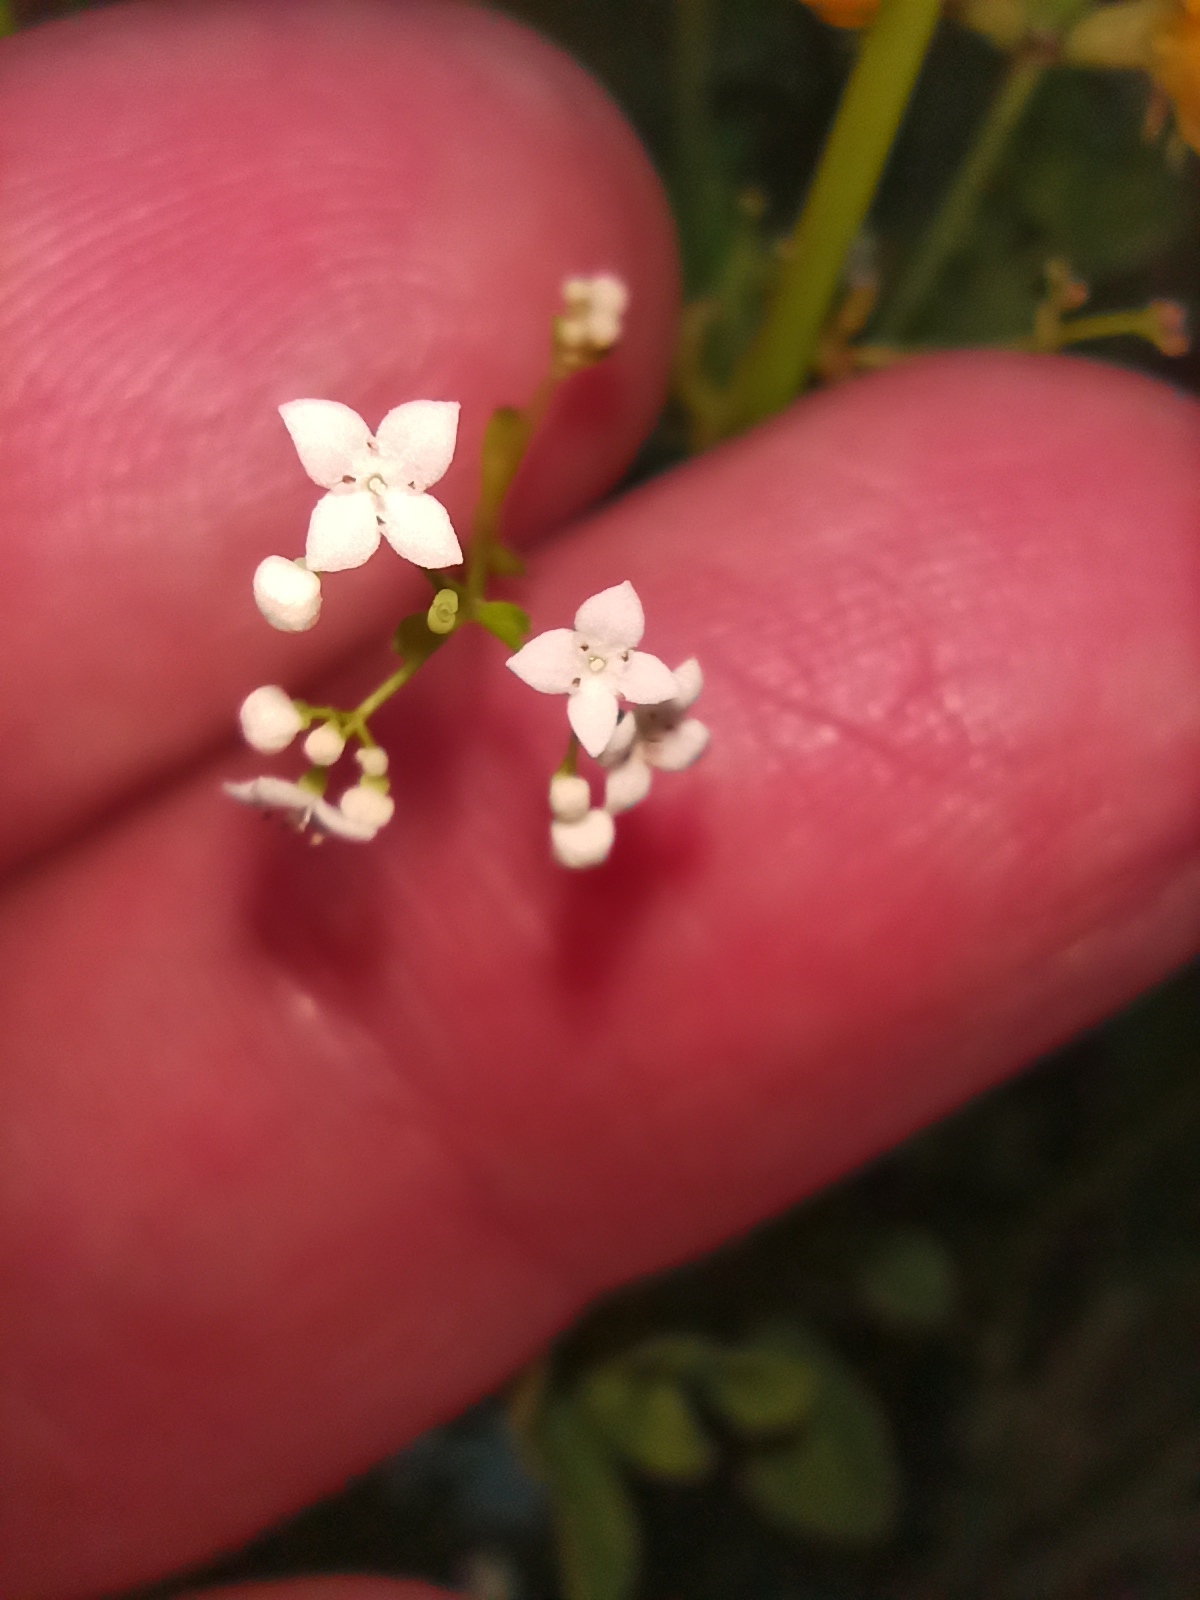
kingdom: Plantae
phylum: Tracheophyta
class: Magnoliopsida
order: Gentianales
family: Rubiaceae
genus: Galium
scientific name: Galium palustre
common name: Common marsh-bedstraw
